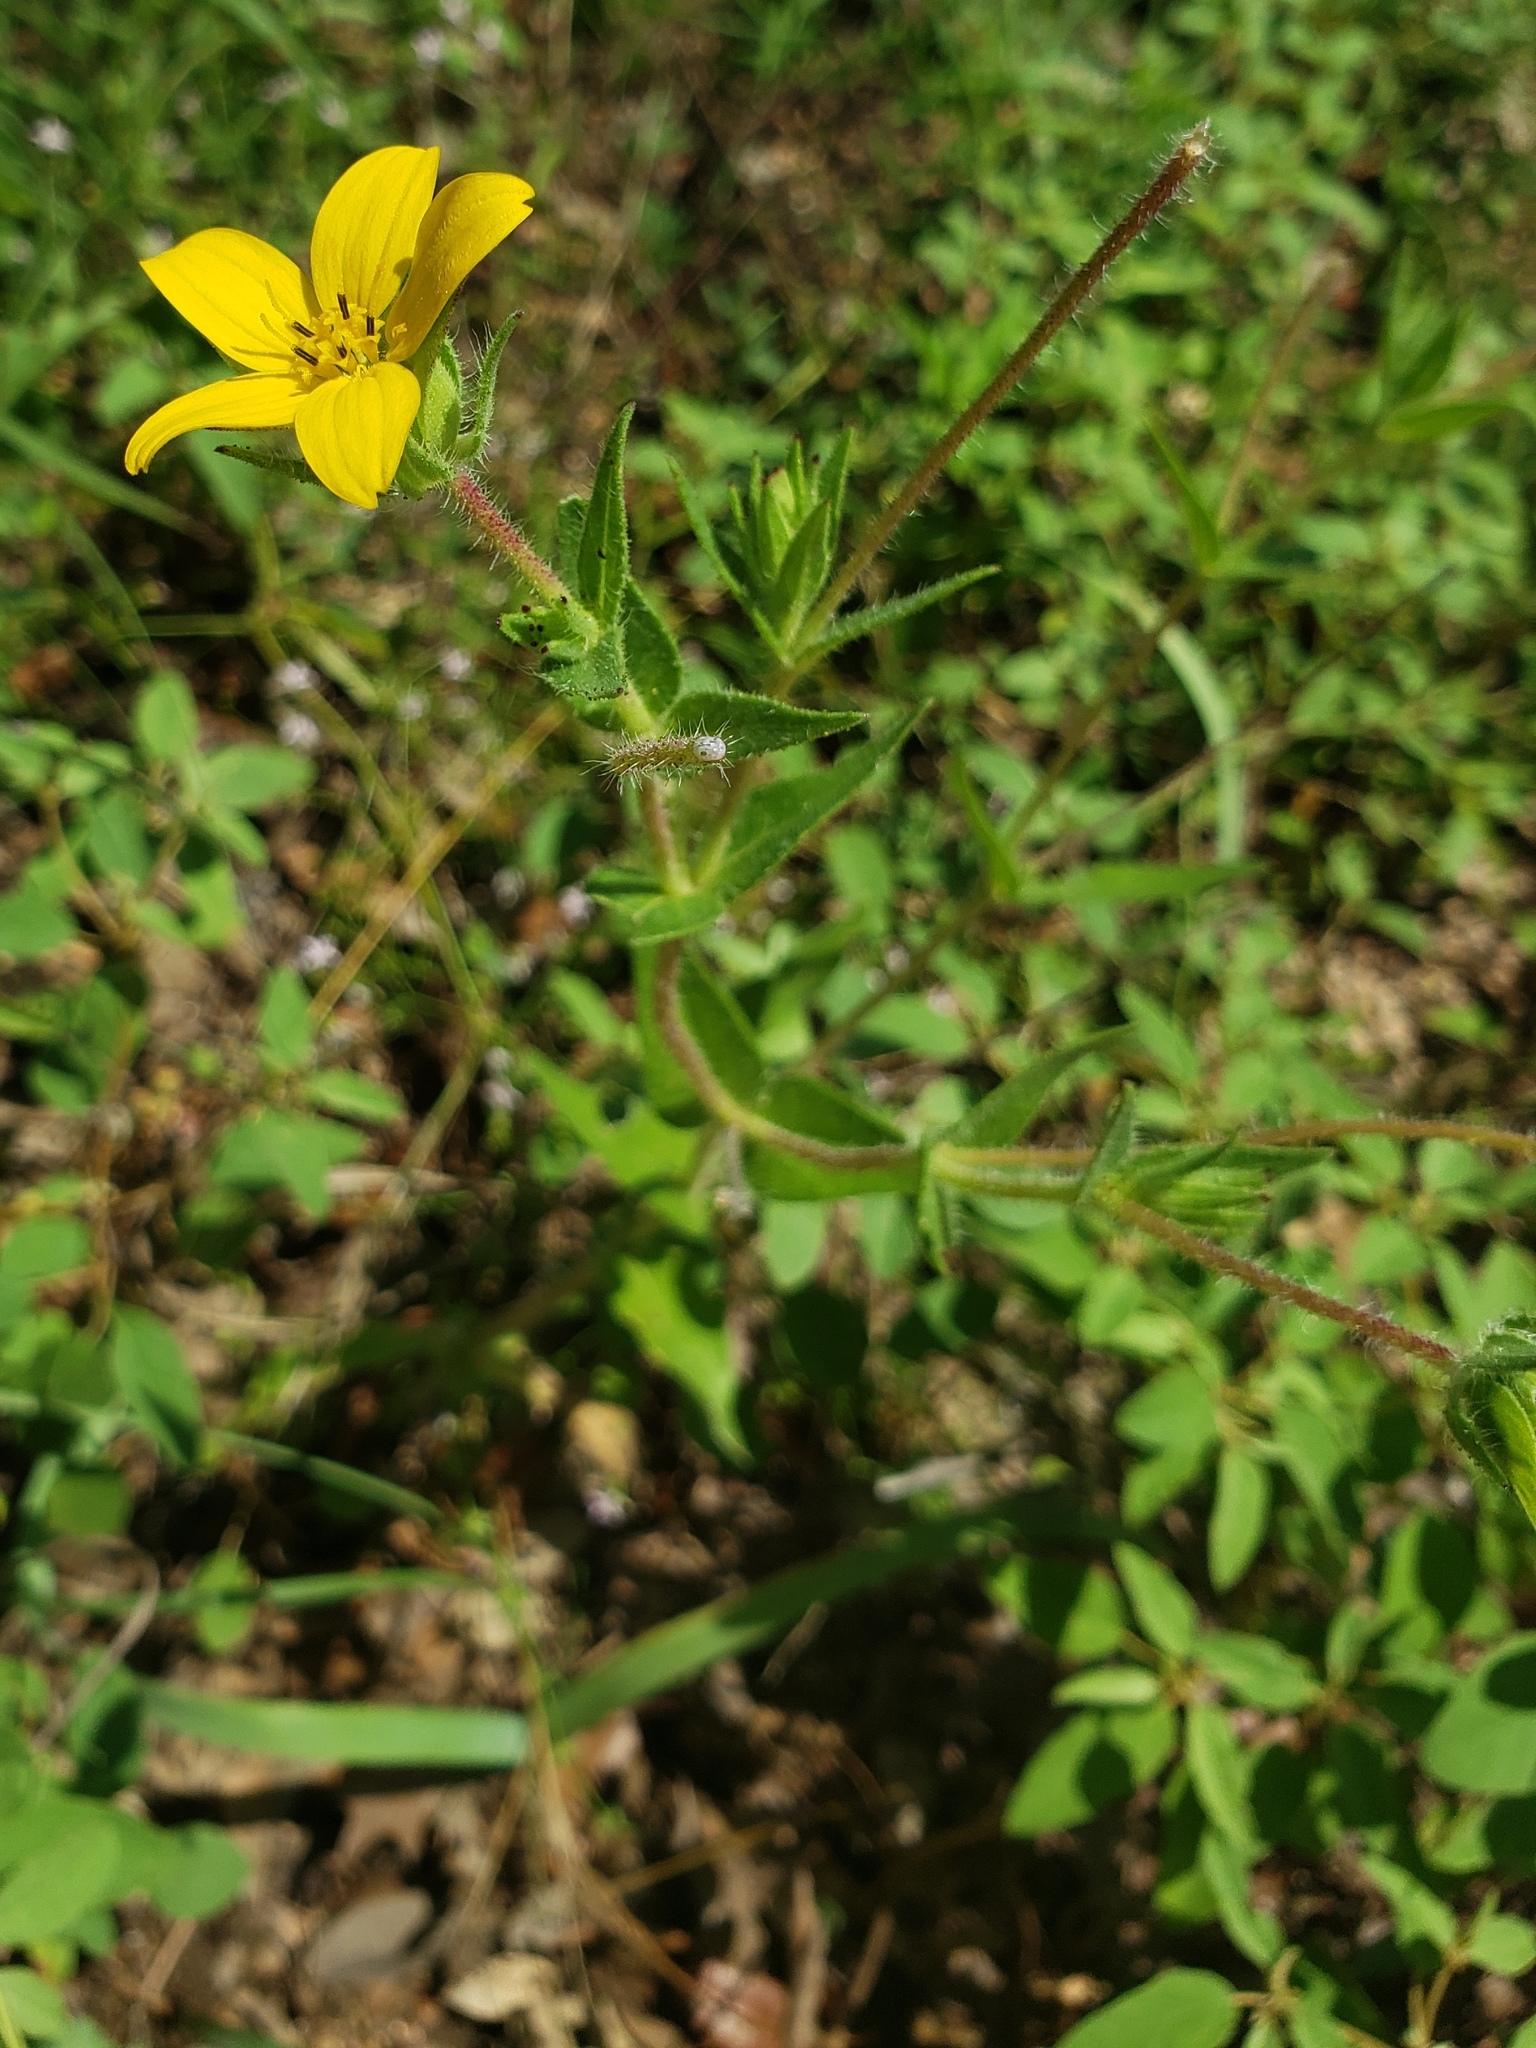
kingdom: Plantae
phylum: Tracheophyta
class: Magnoliopsida
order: Asterales
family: Asteraceae
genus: Lindheimera
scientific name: Lindheimera texana
